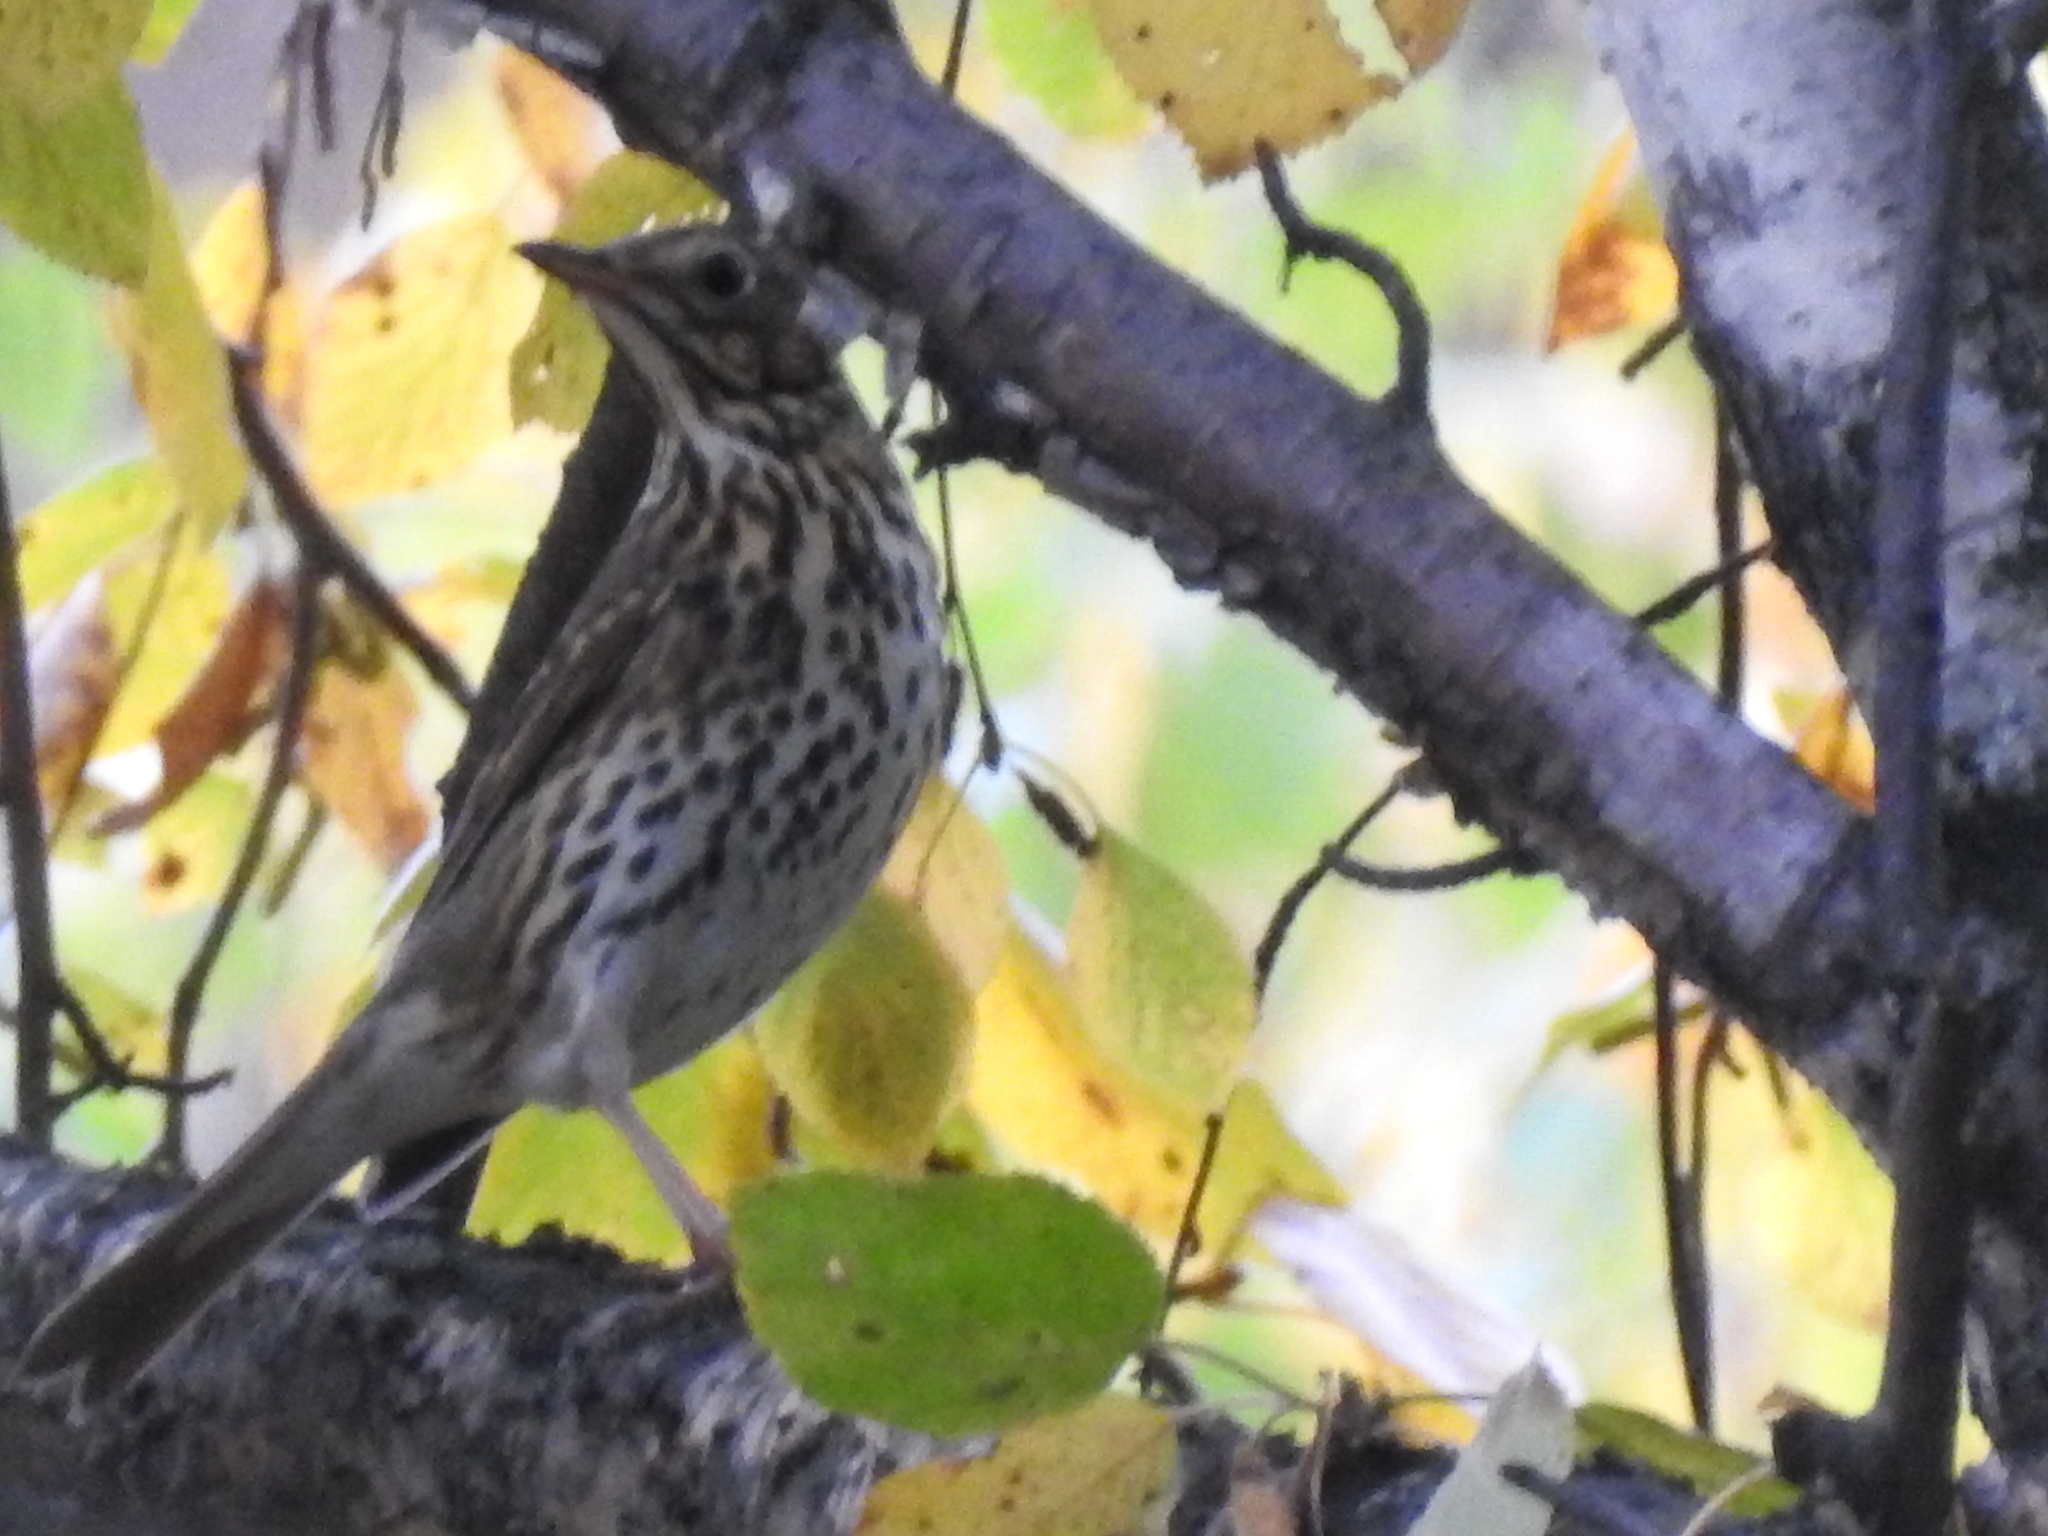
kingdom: Animalia
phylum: Chordata
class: Aves
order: Passeriformes
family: Turdidae
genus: Turdus
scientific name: Turdus philomelos
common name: Song thrush
